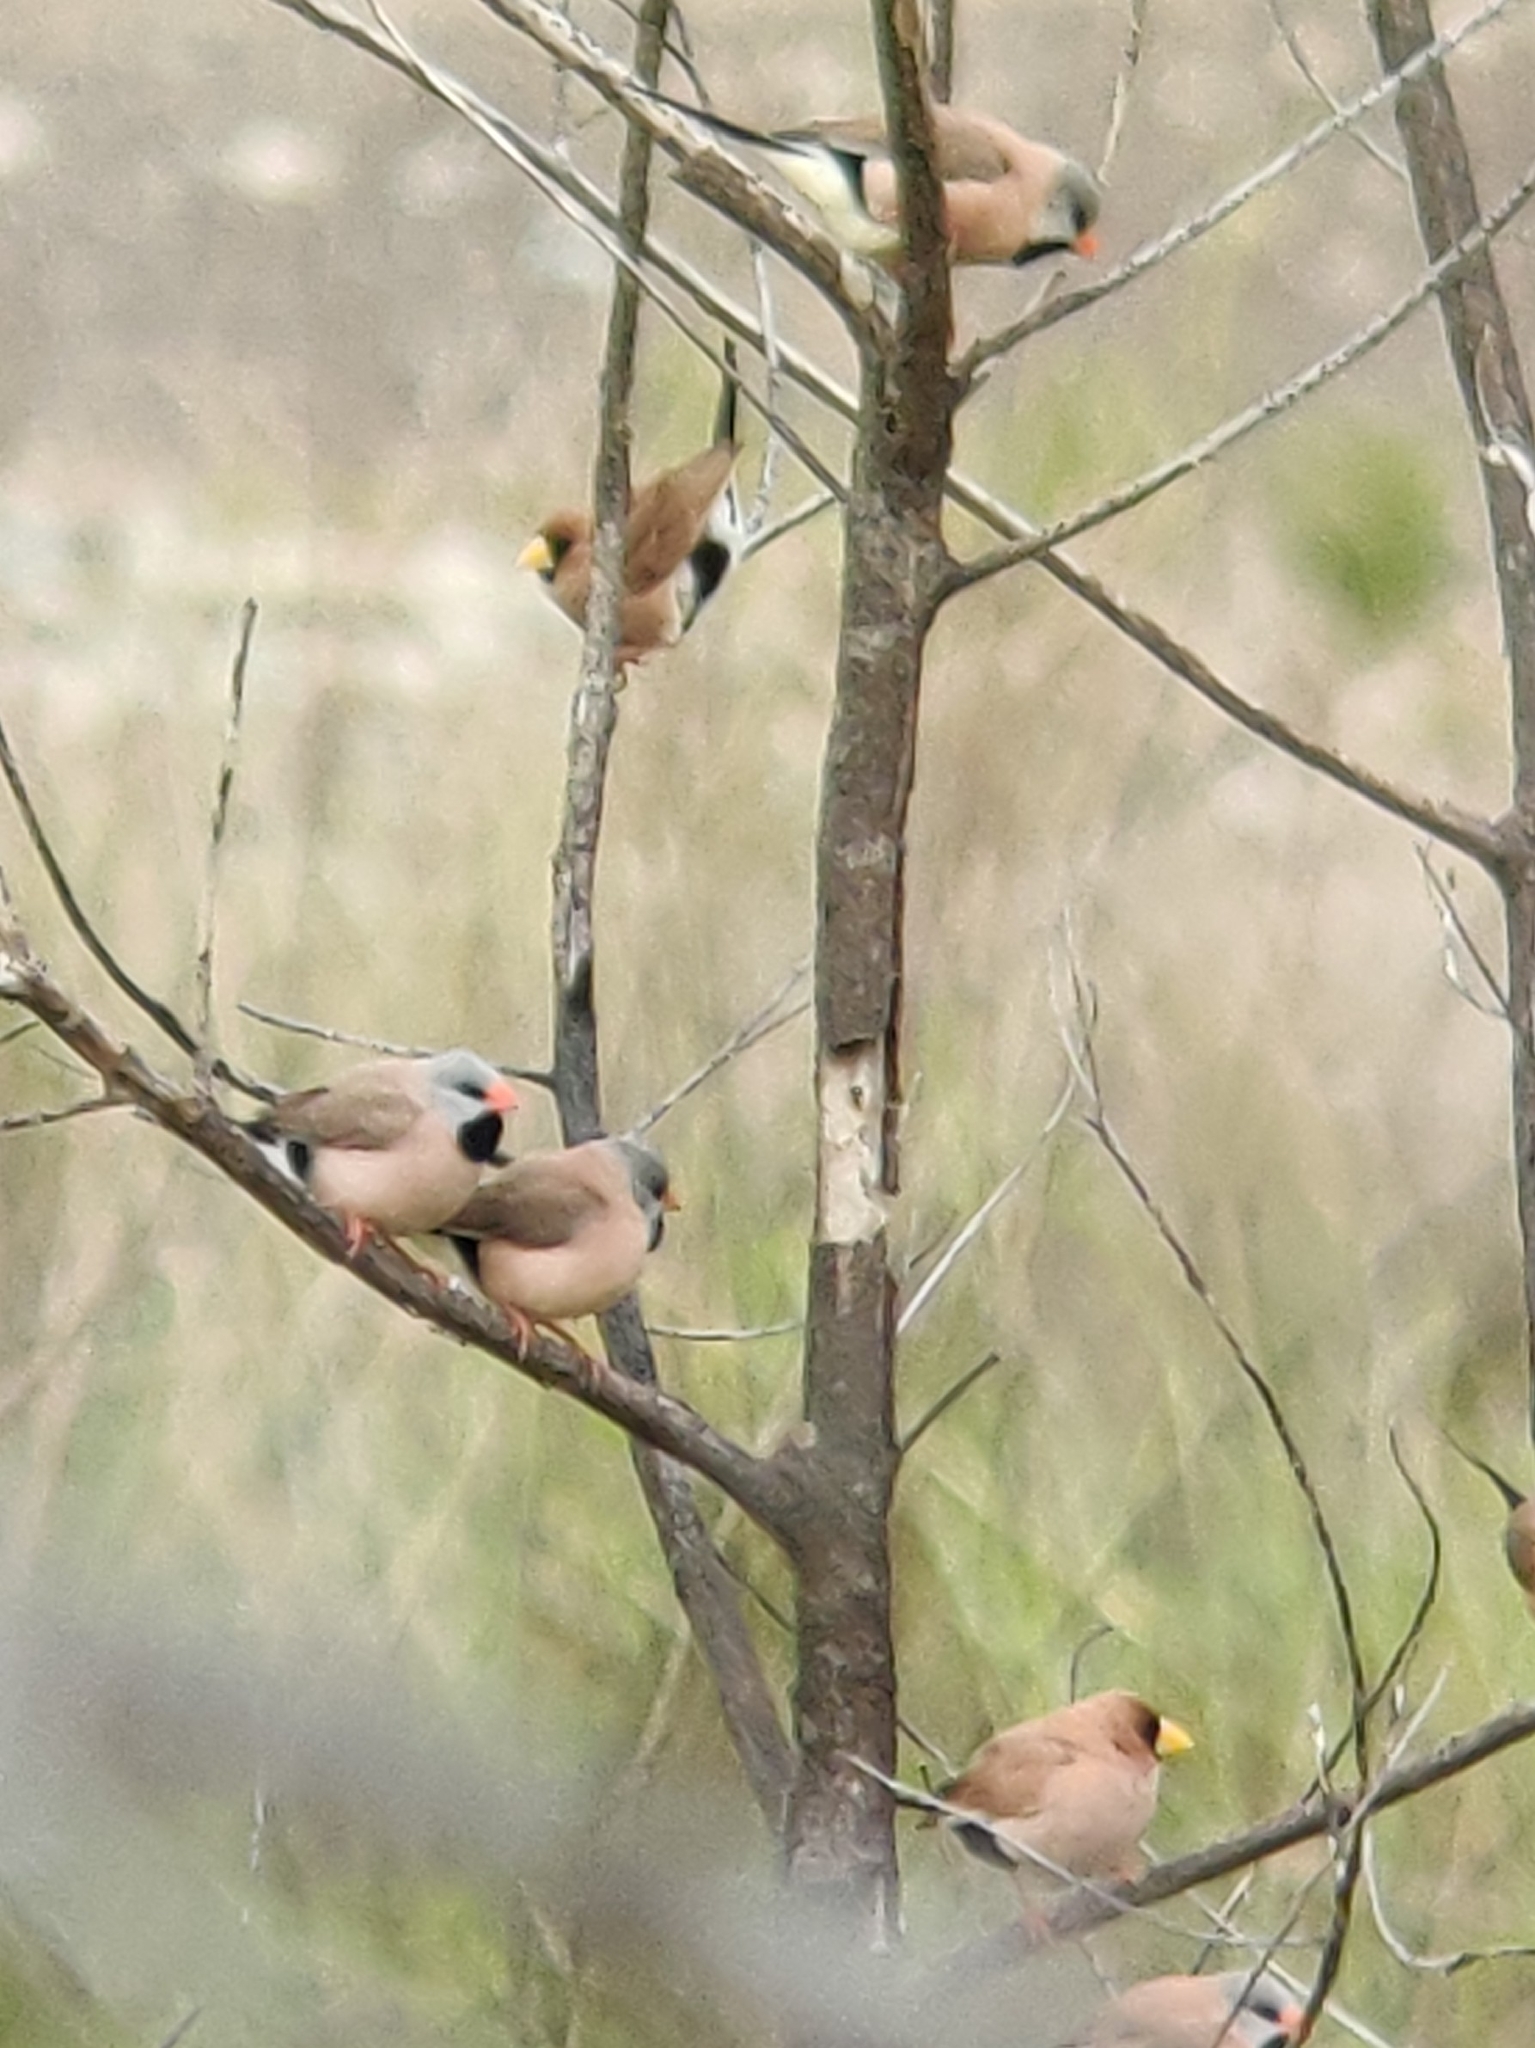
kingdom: Animalia
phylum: Chordata
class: Aves
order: Passeriformes
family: Estrildidae
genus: Poephila
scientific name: Poephila acuticauda
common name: Long-tailed finch
